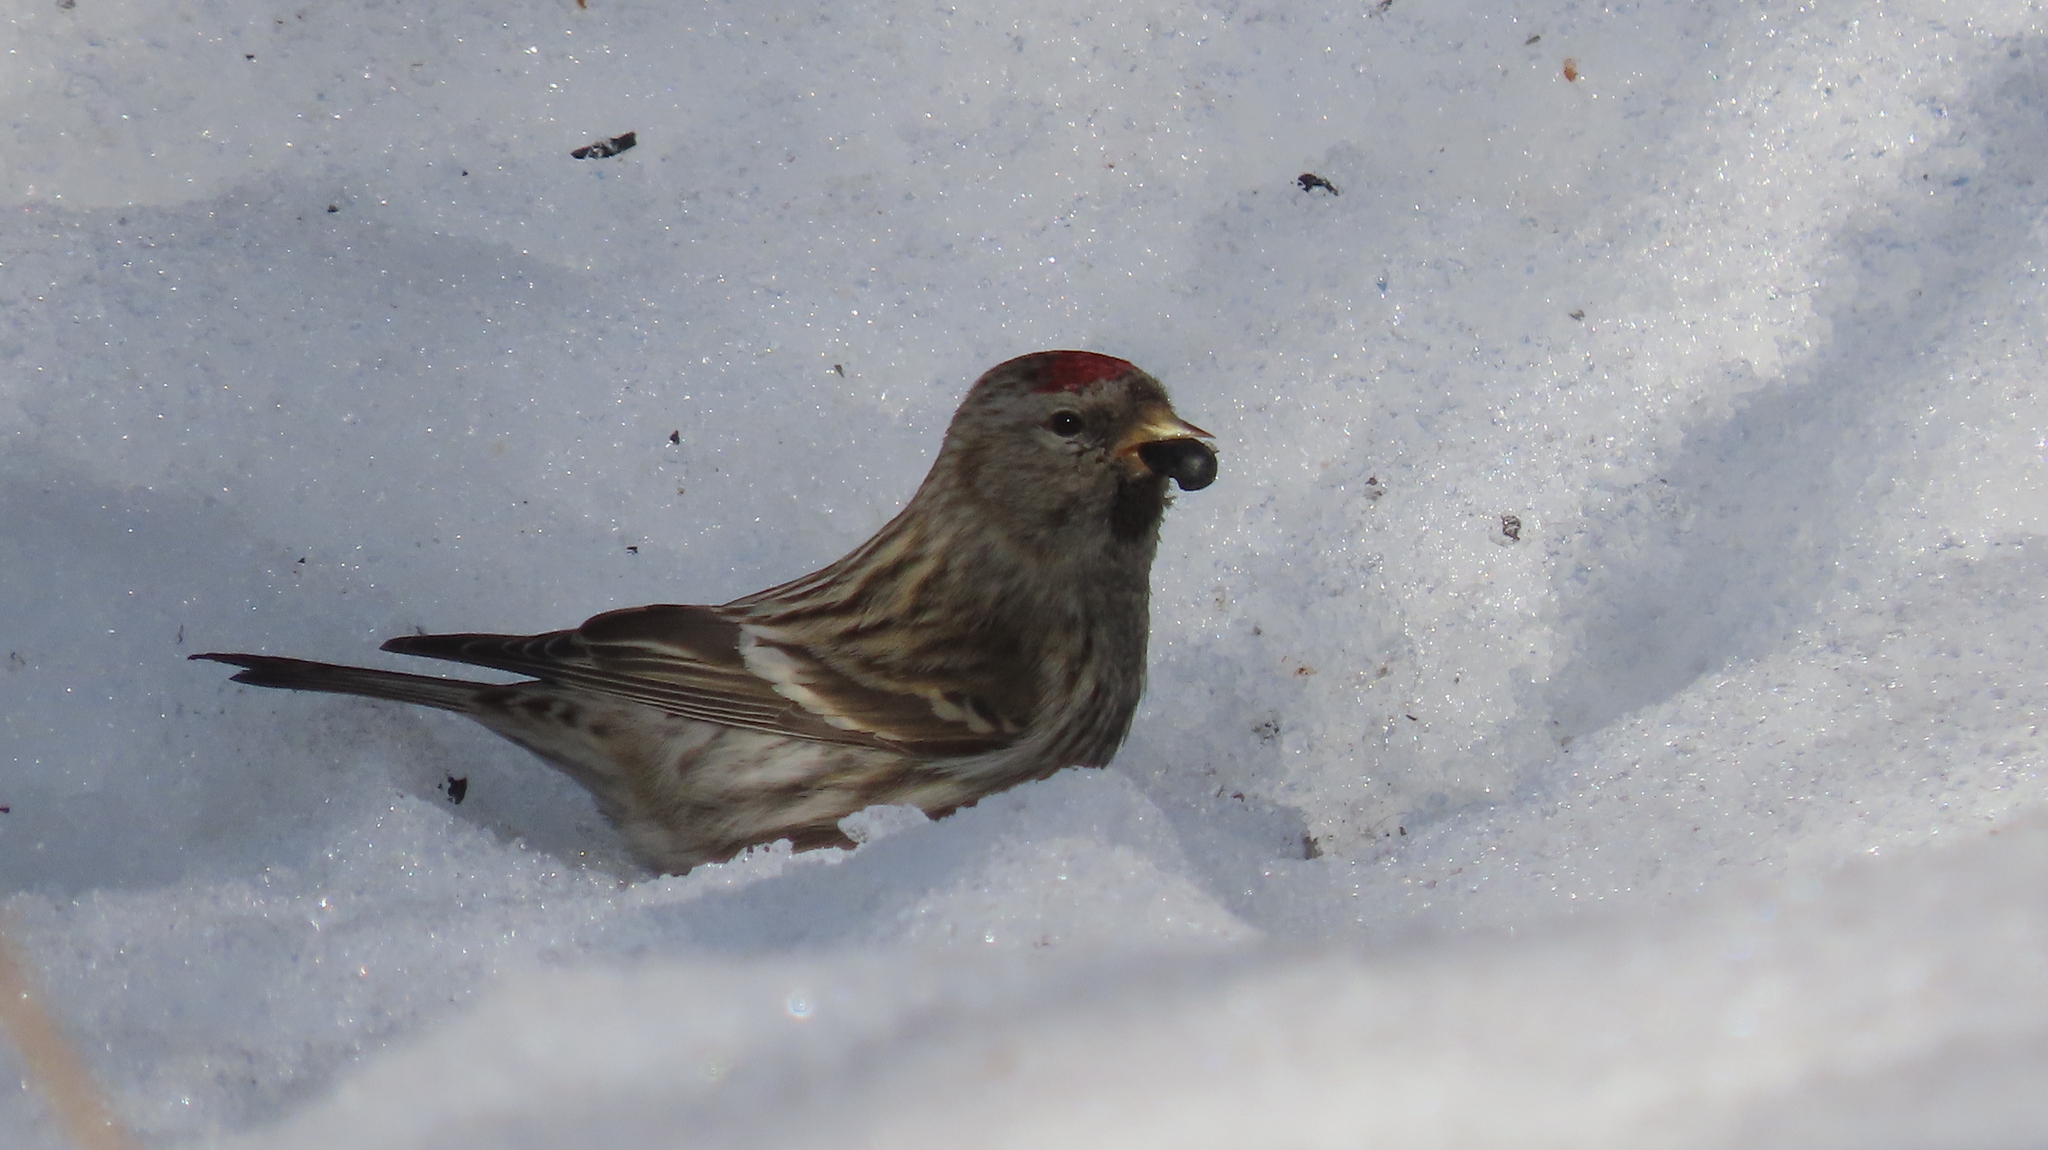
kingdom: Animalia
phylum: Chordata
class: Aves
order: Passeriformes
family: Fringillidae
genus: Acanthis
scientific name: Acanthis flammea
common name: Common redpoll
